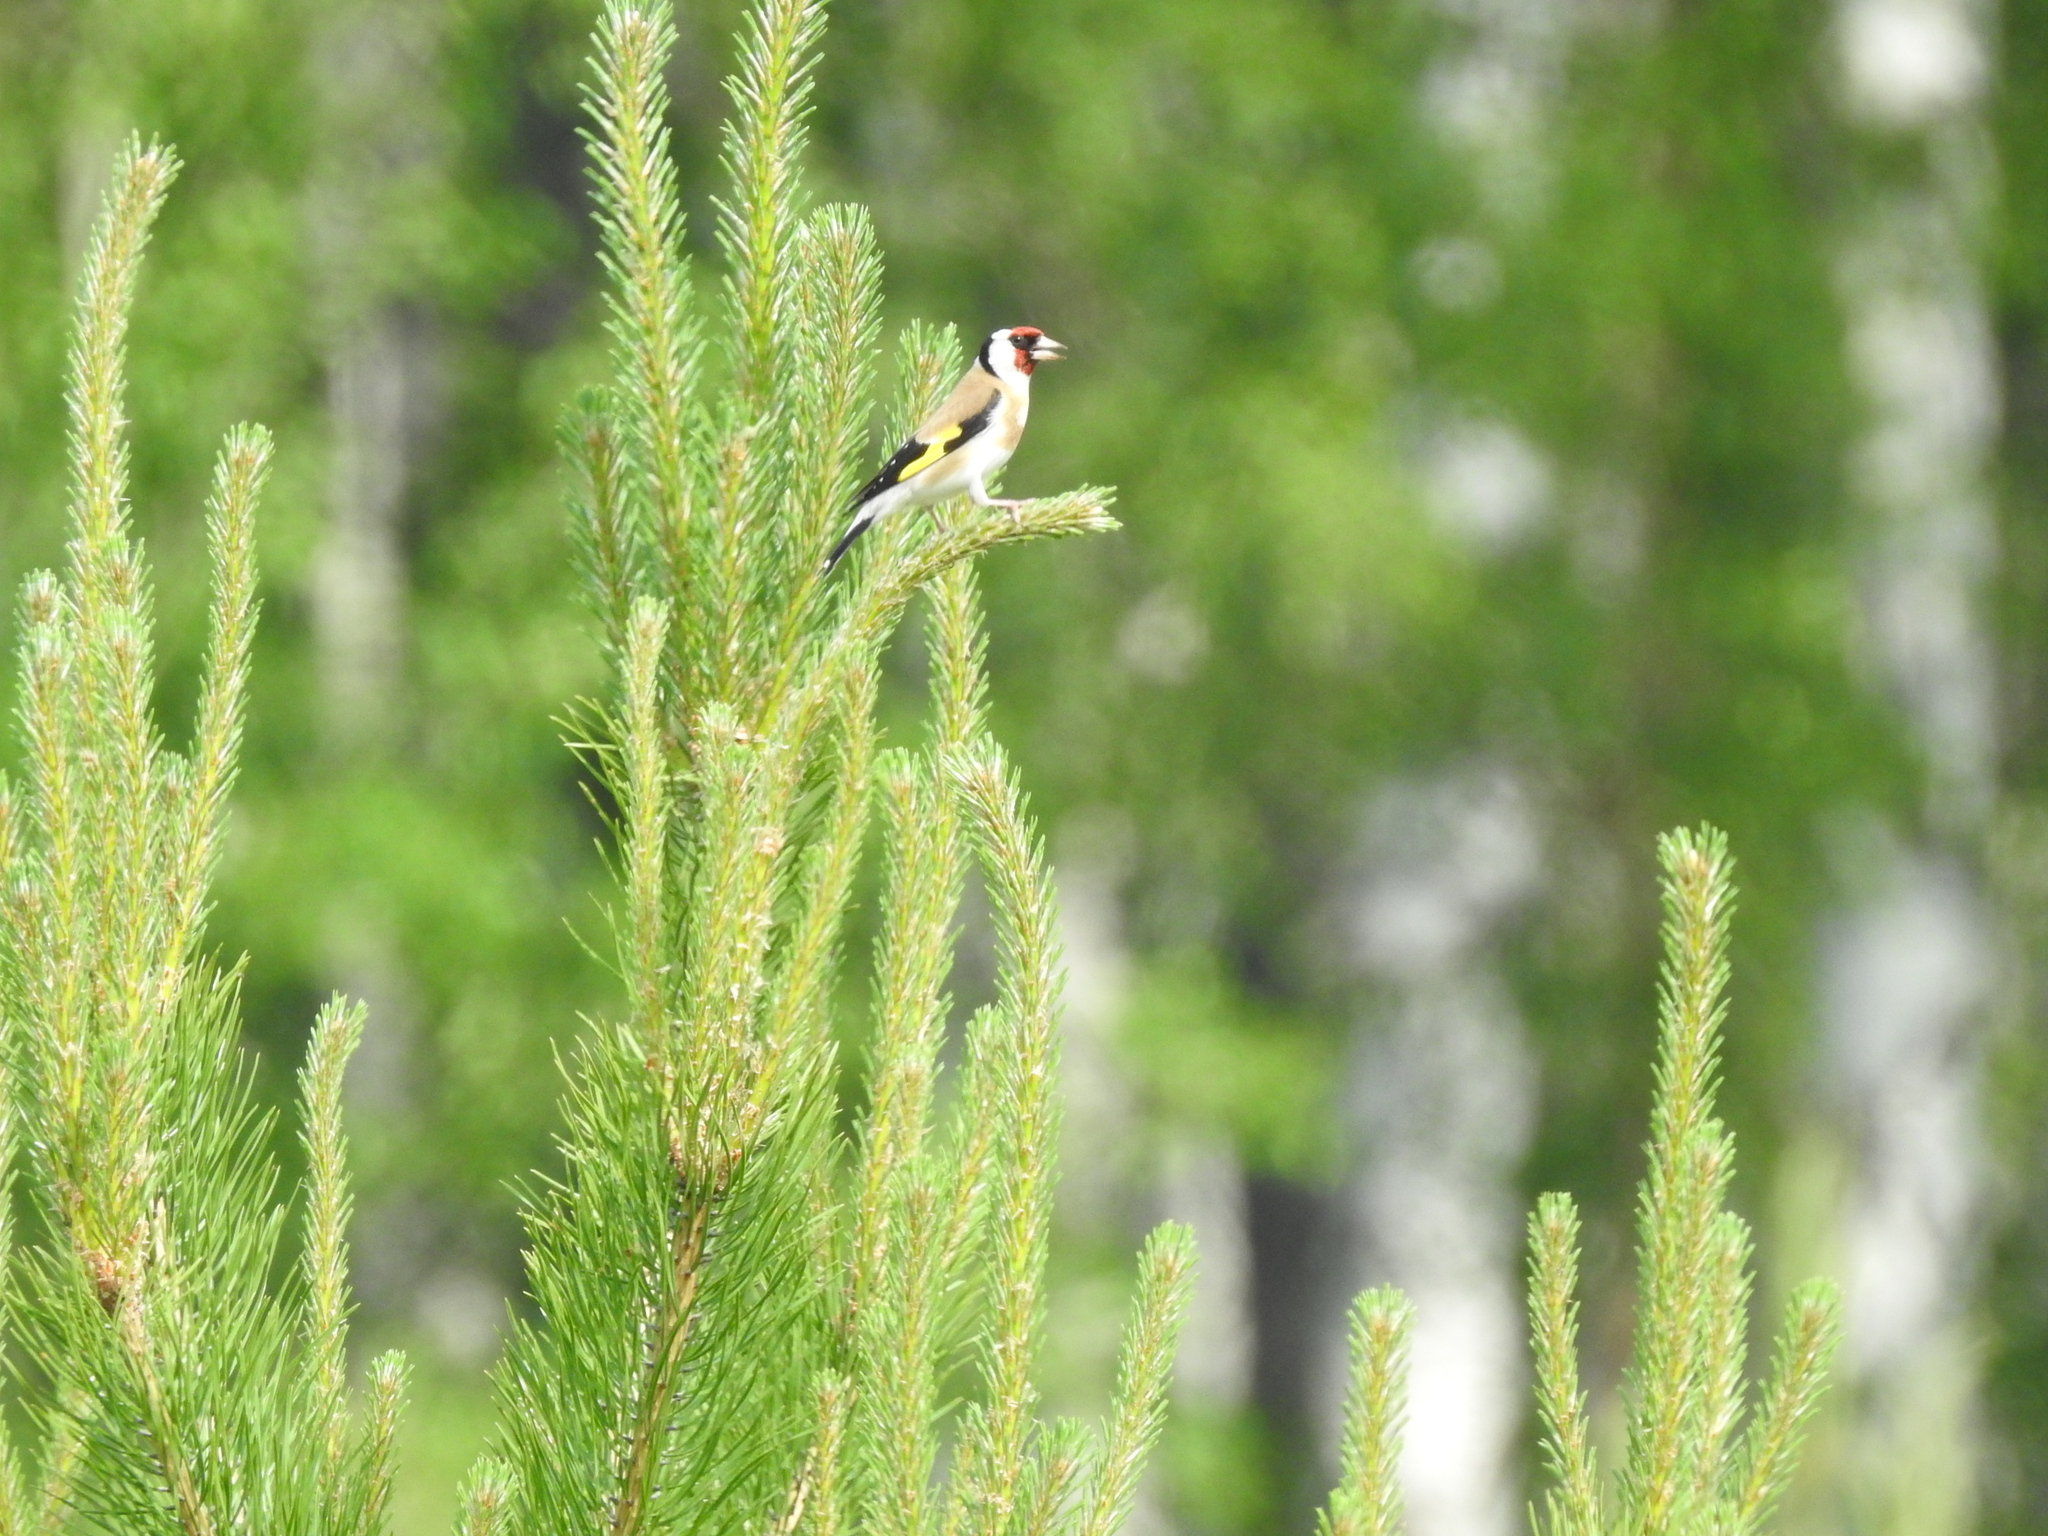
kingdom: Animalia
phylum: Chordata
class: Aves
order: Passeriformes
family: Fringillidae
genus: Carduelis
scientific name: Carduelis carduelis
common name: European goldfinch
